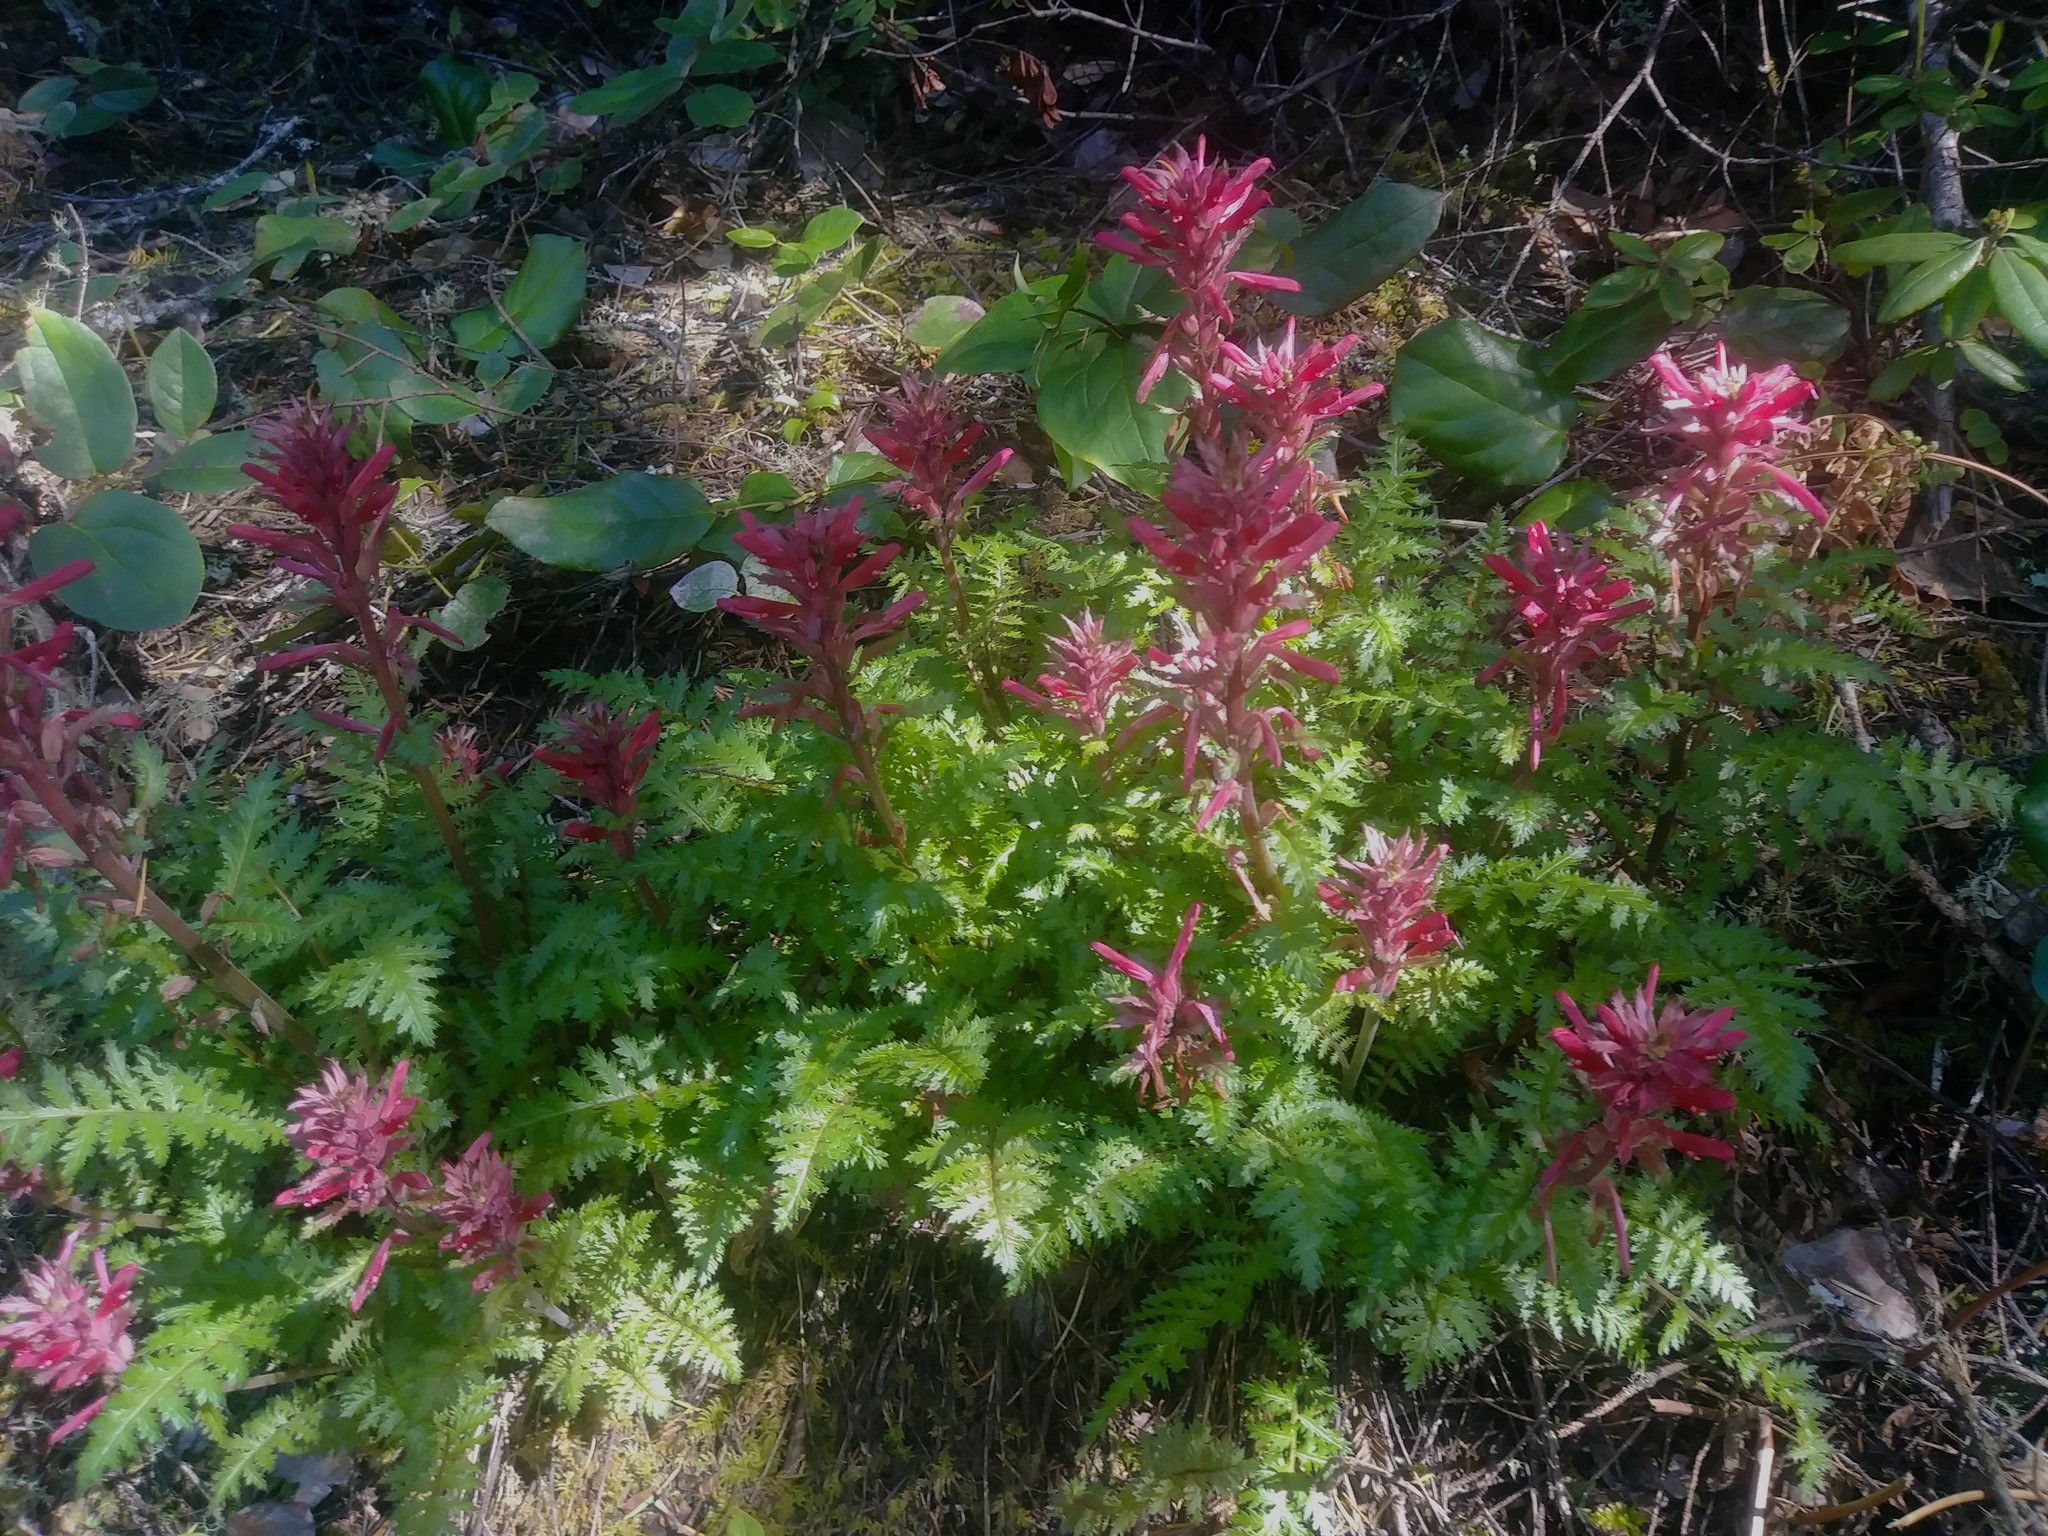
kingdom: Plantae
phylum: Tracheophyta
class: Magnoliopsida
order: Lamiales
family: Orobanchaceae
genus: Pedicularis
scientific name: Pedicularis densiflora
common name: Indian warrior
